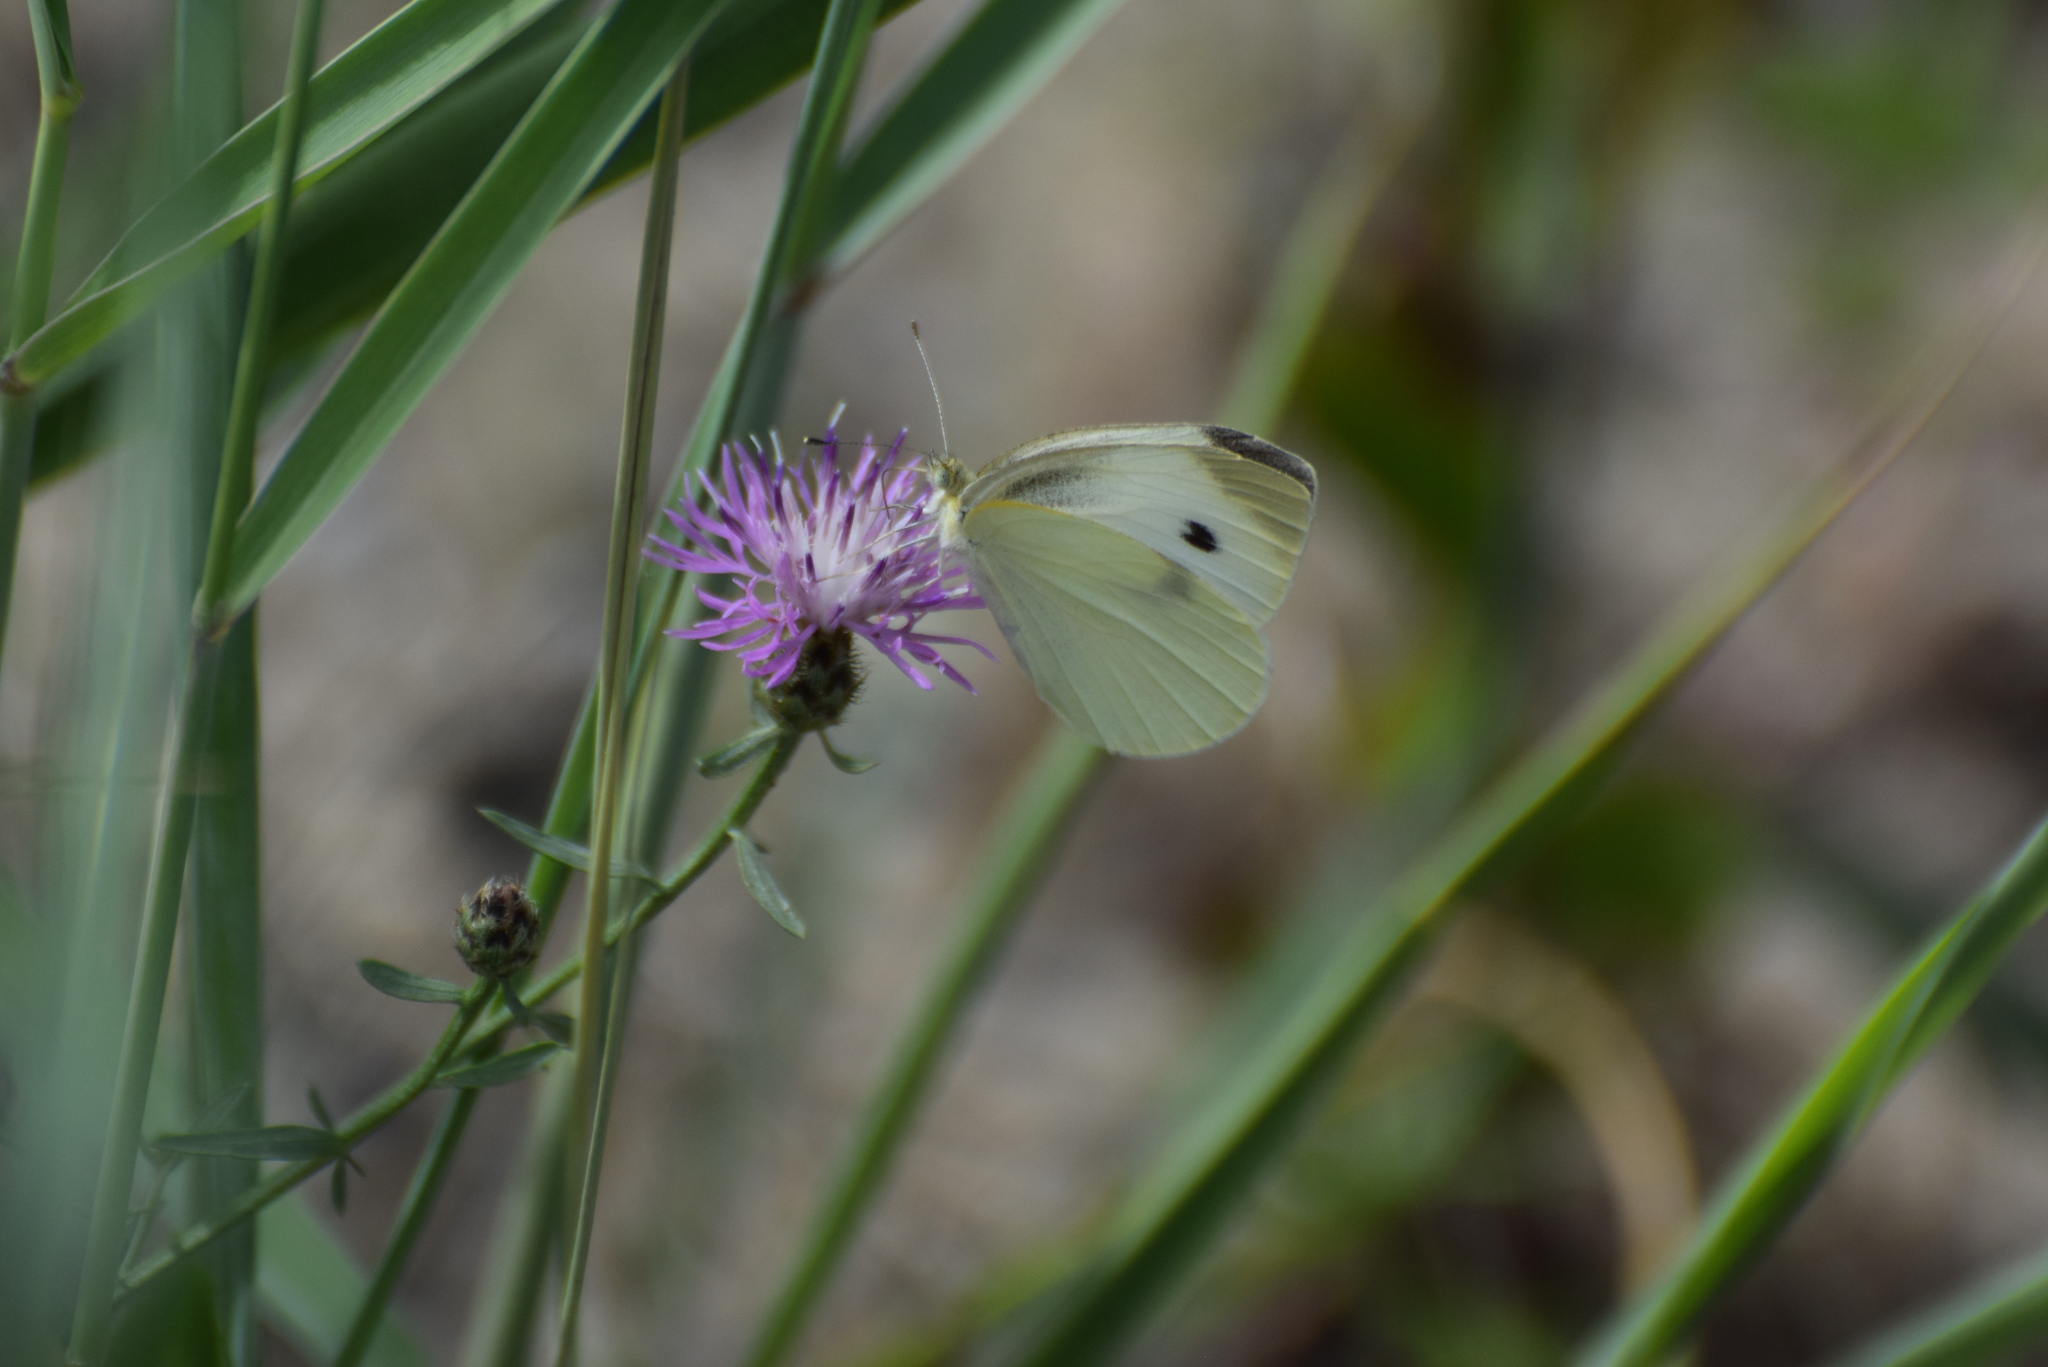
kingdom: Animalia
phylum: Arthropoda
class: Insecta
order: Lepidoptera
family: Pieridae
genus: Pieris
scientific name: Pieris rapae
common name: Small white
